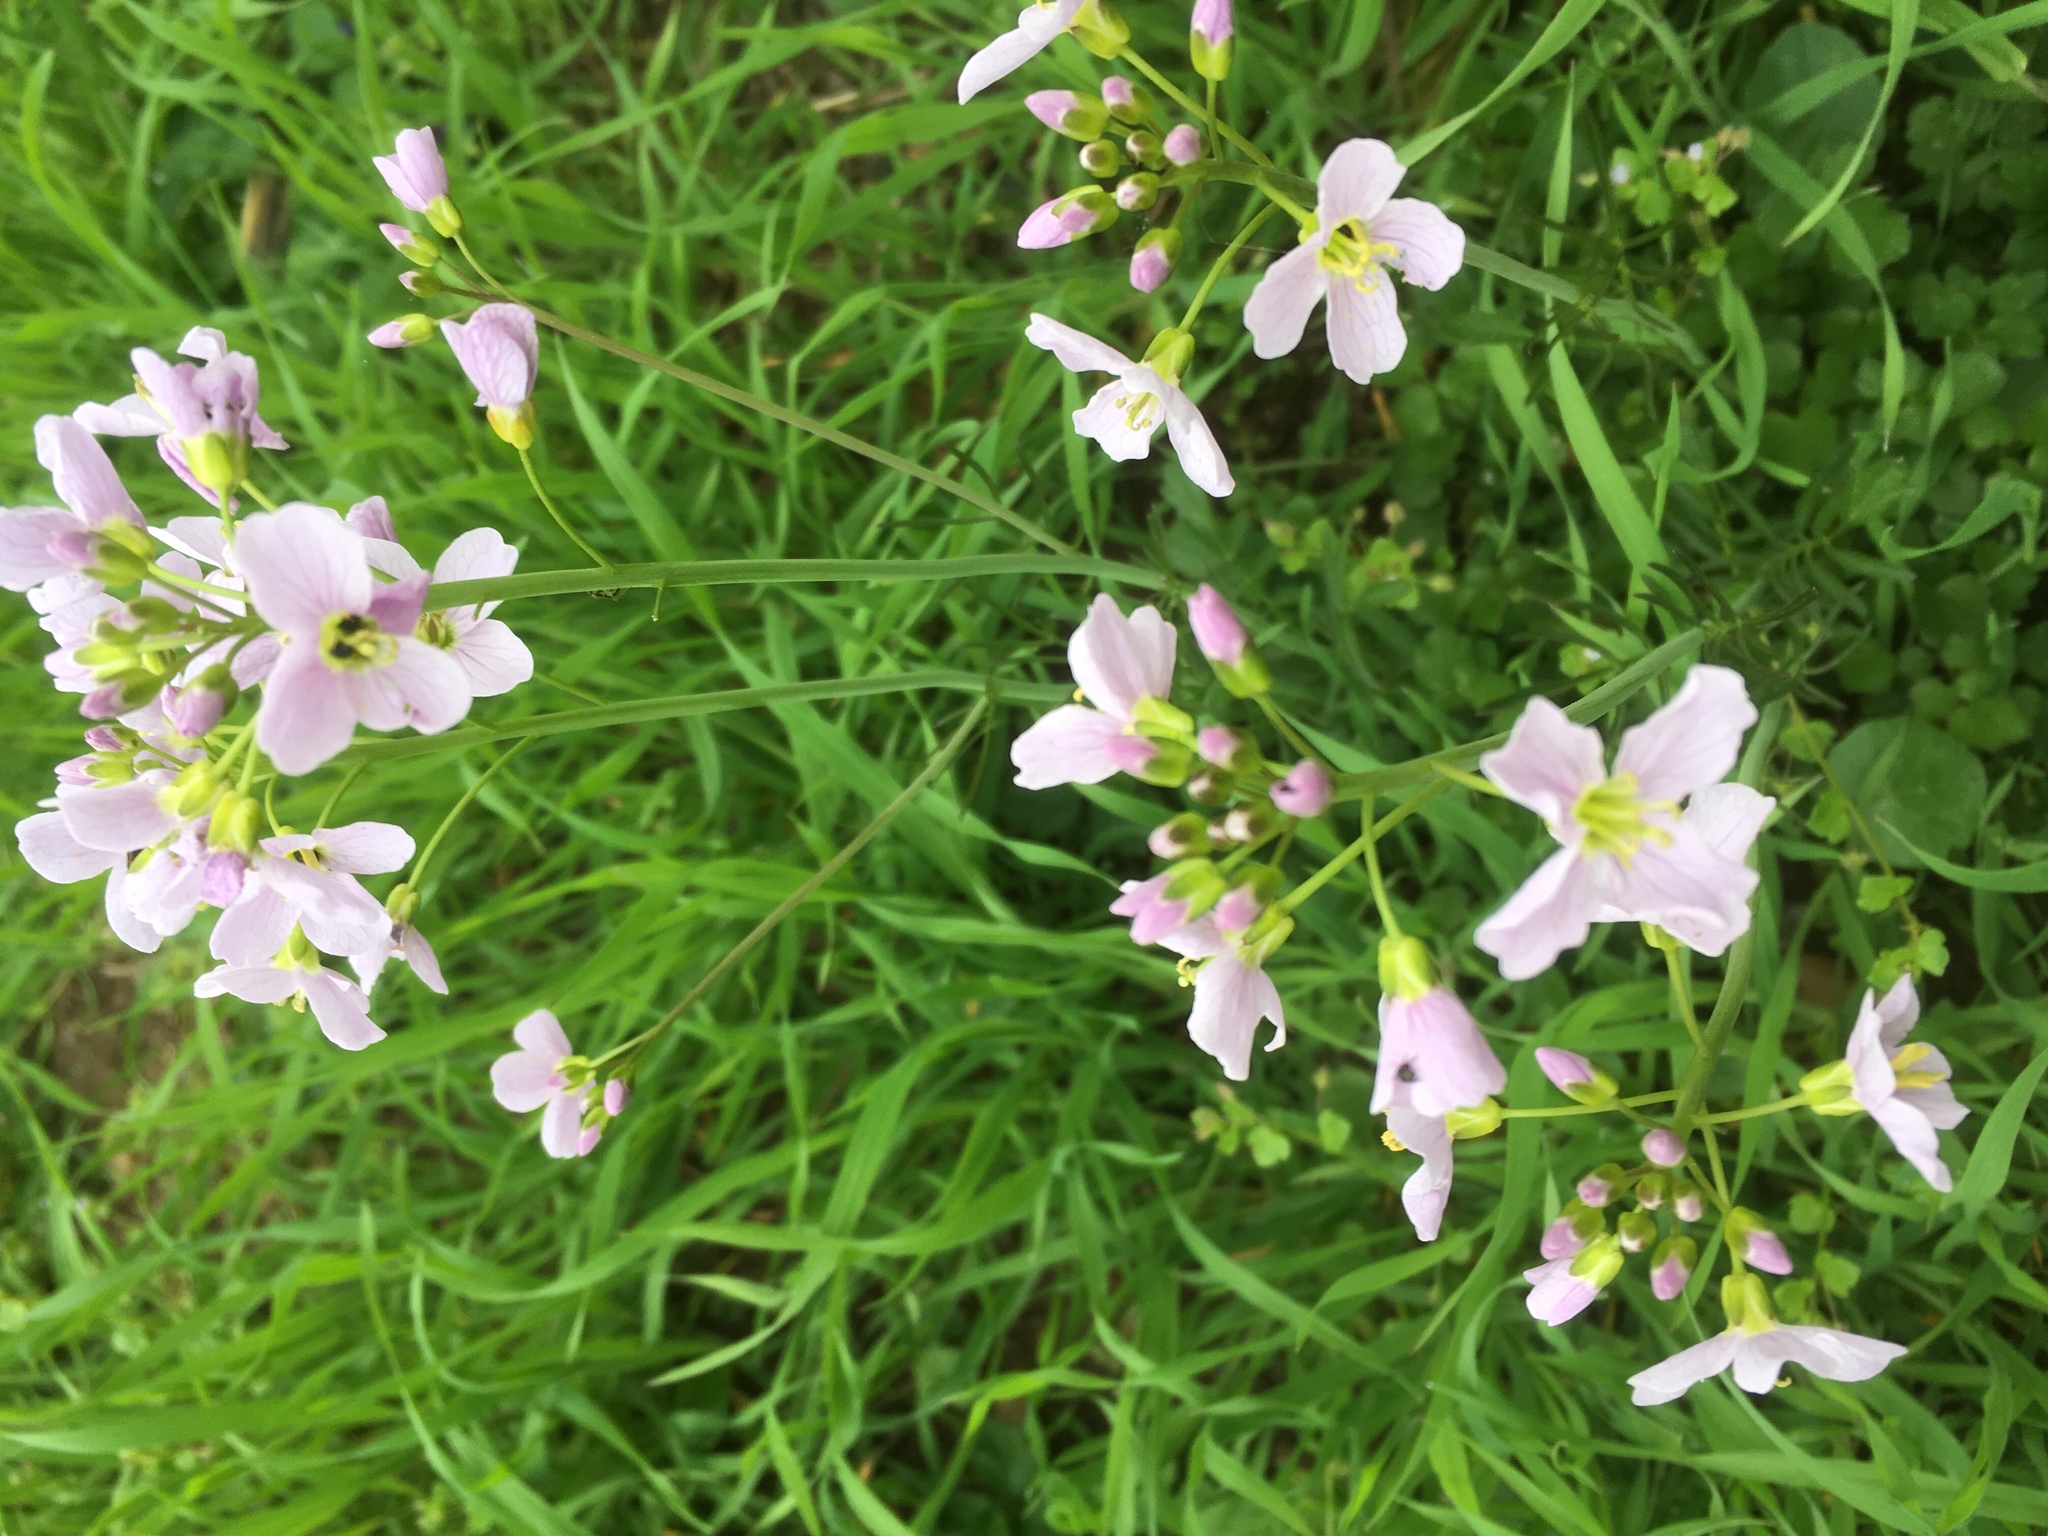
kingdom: Plantae
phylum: Tracheophyta
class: Magnoliopsida
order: Brassicales
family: Brassicaceae
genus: Cardamine
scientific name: Cardamine pratensis
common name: Cuckoo flower
